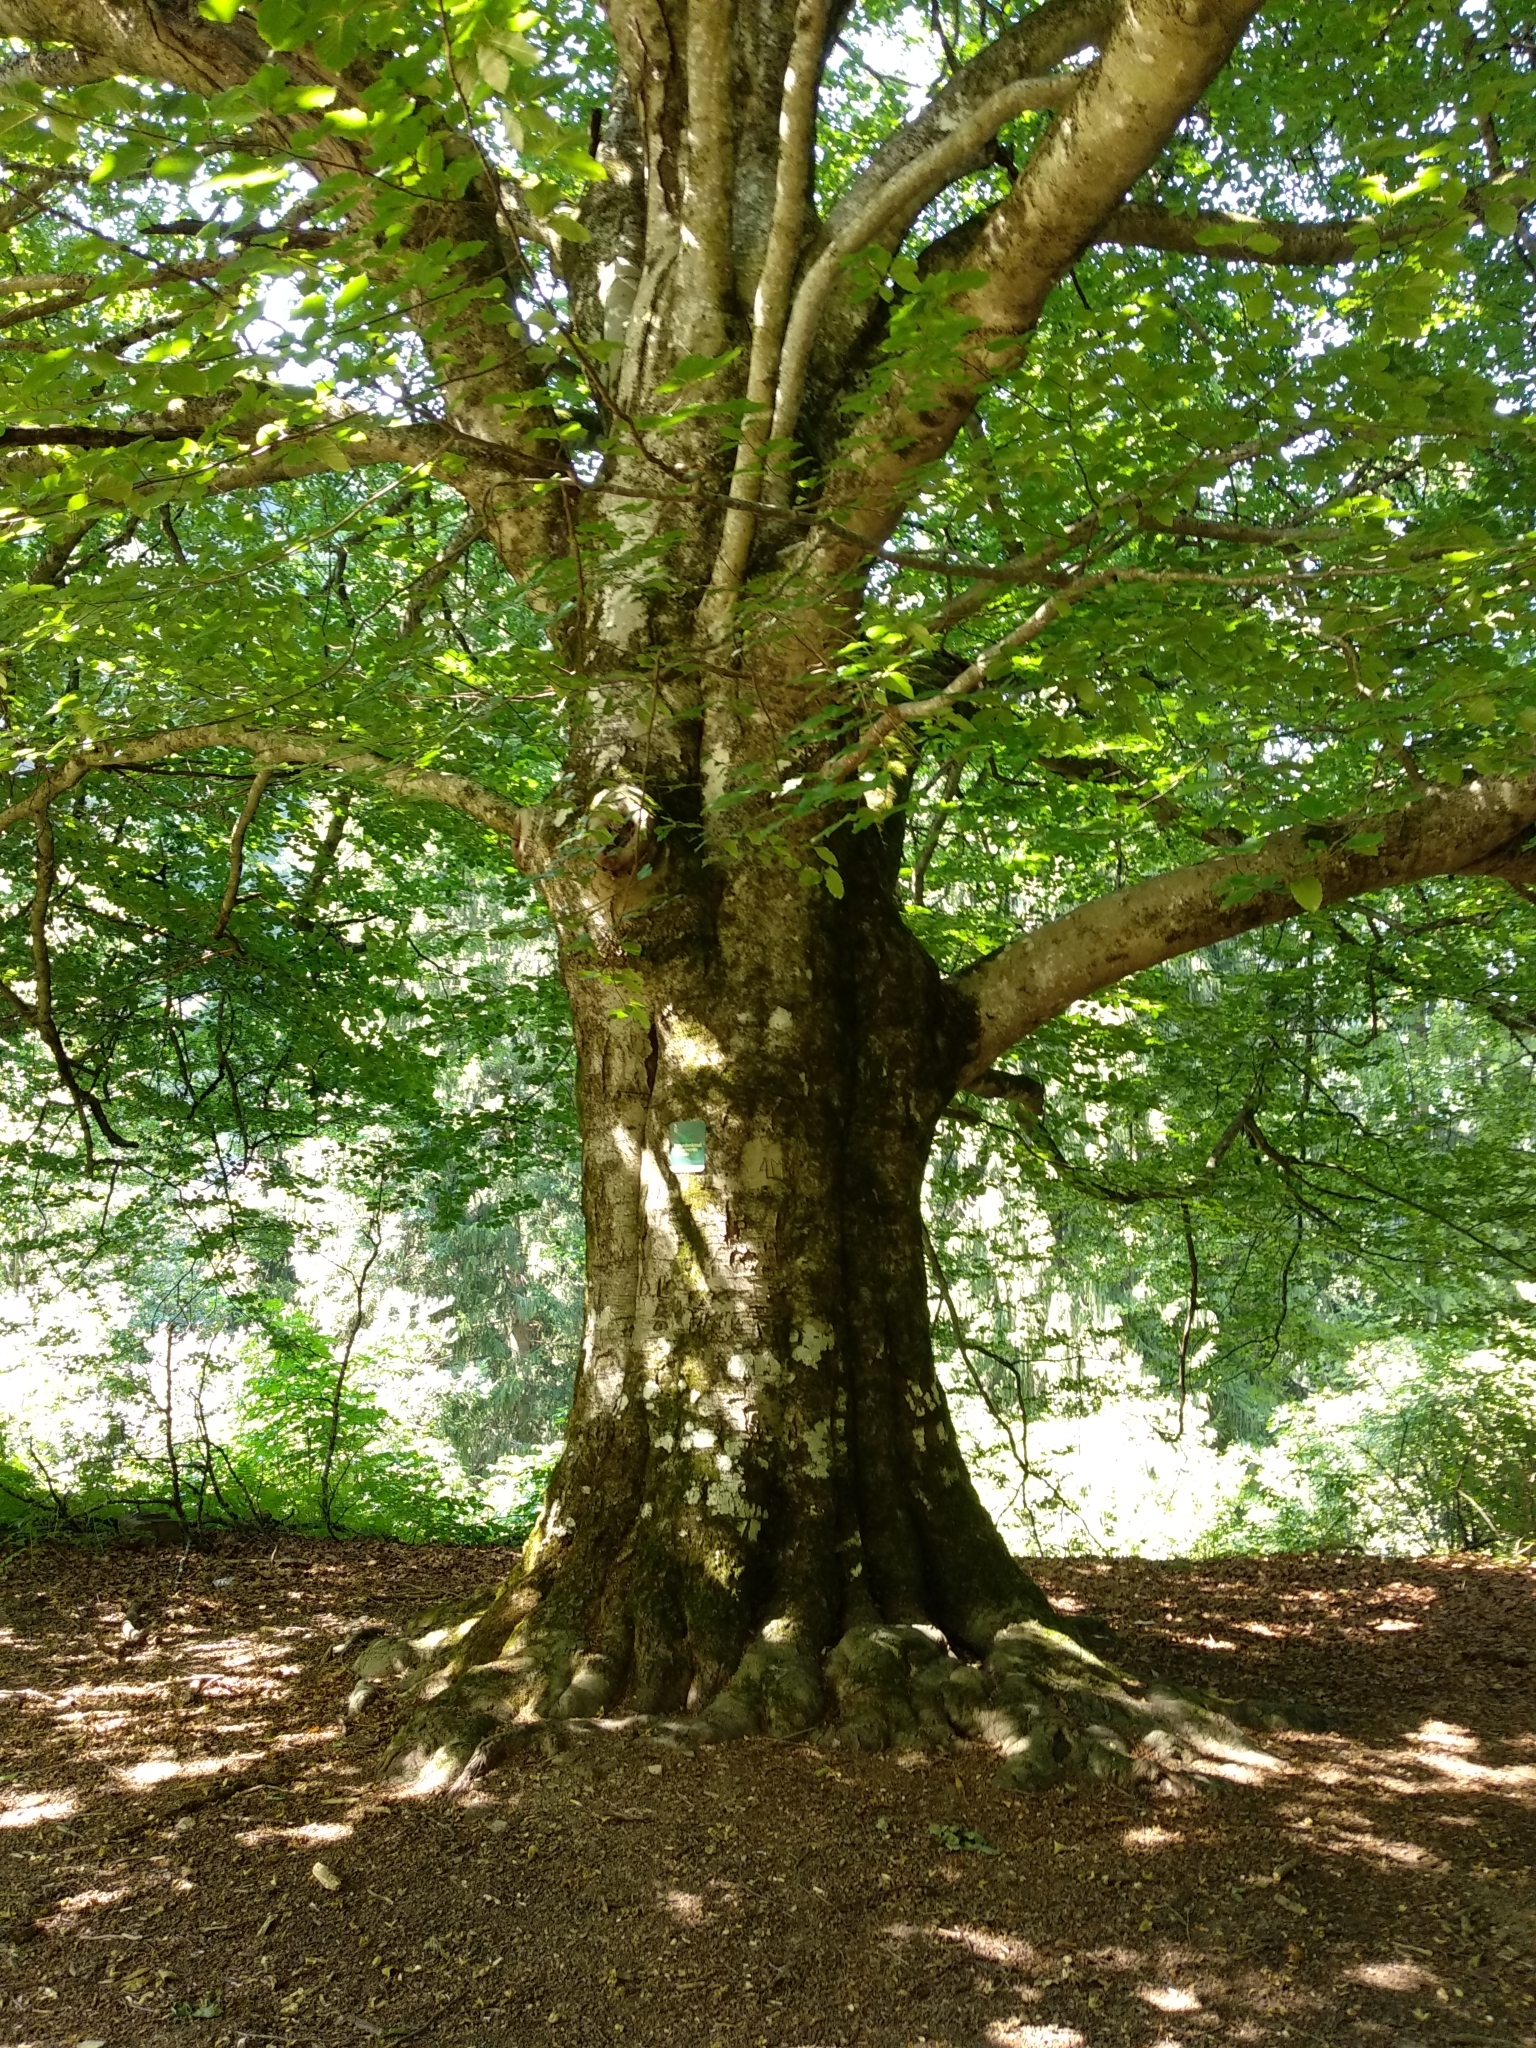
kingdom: Plantae
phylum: Tracheophyta
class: Magnoliopsida
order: Fagales
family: Fagaceae
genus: Fagus
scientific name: Fagus sylvatica
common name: Beech
